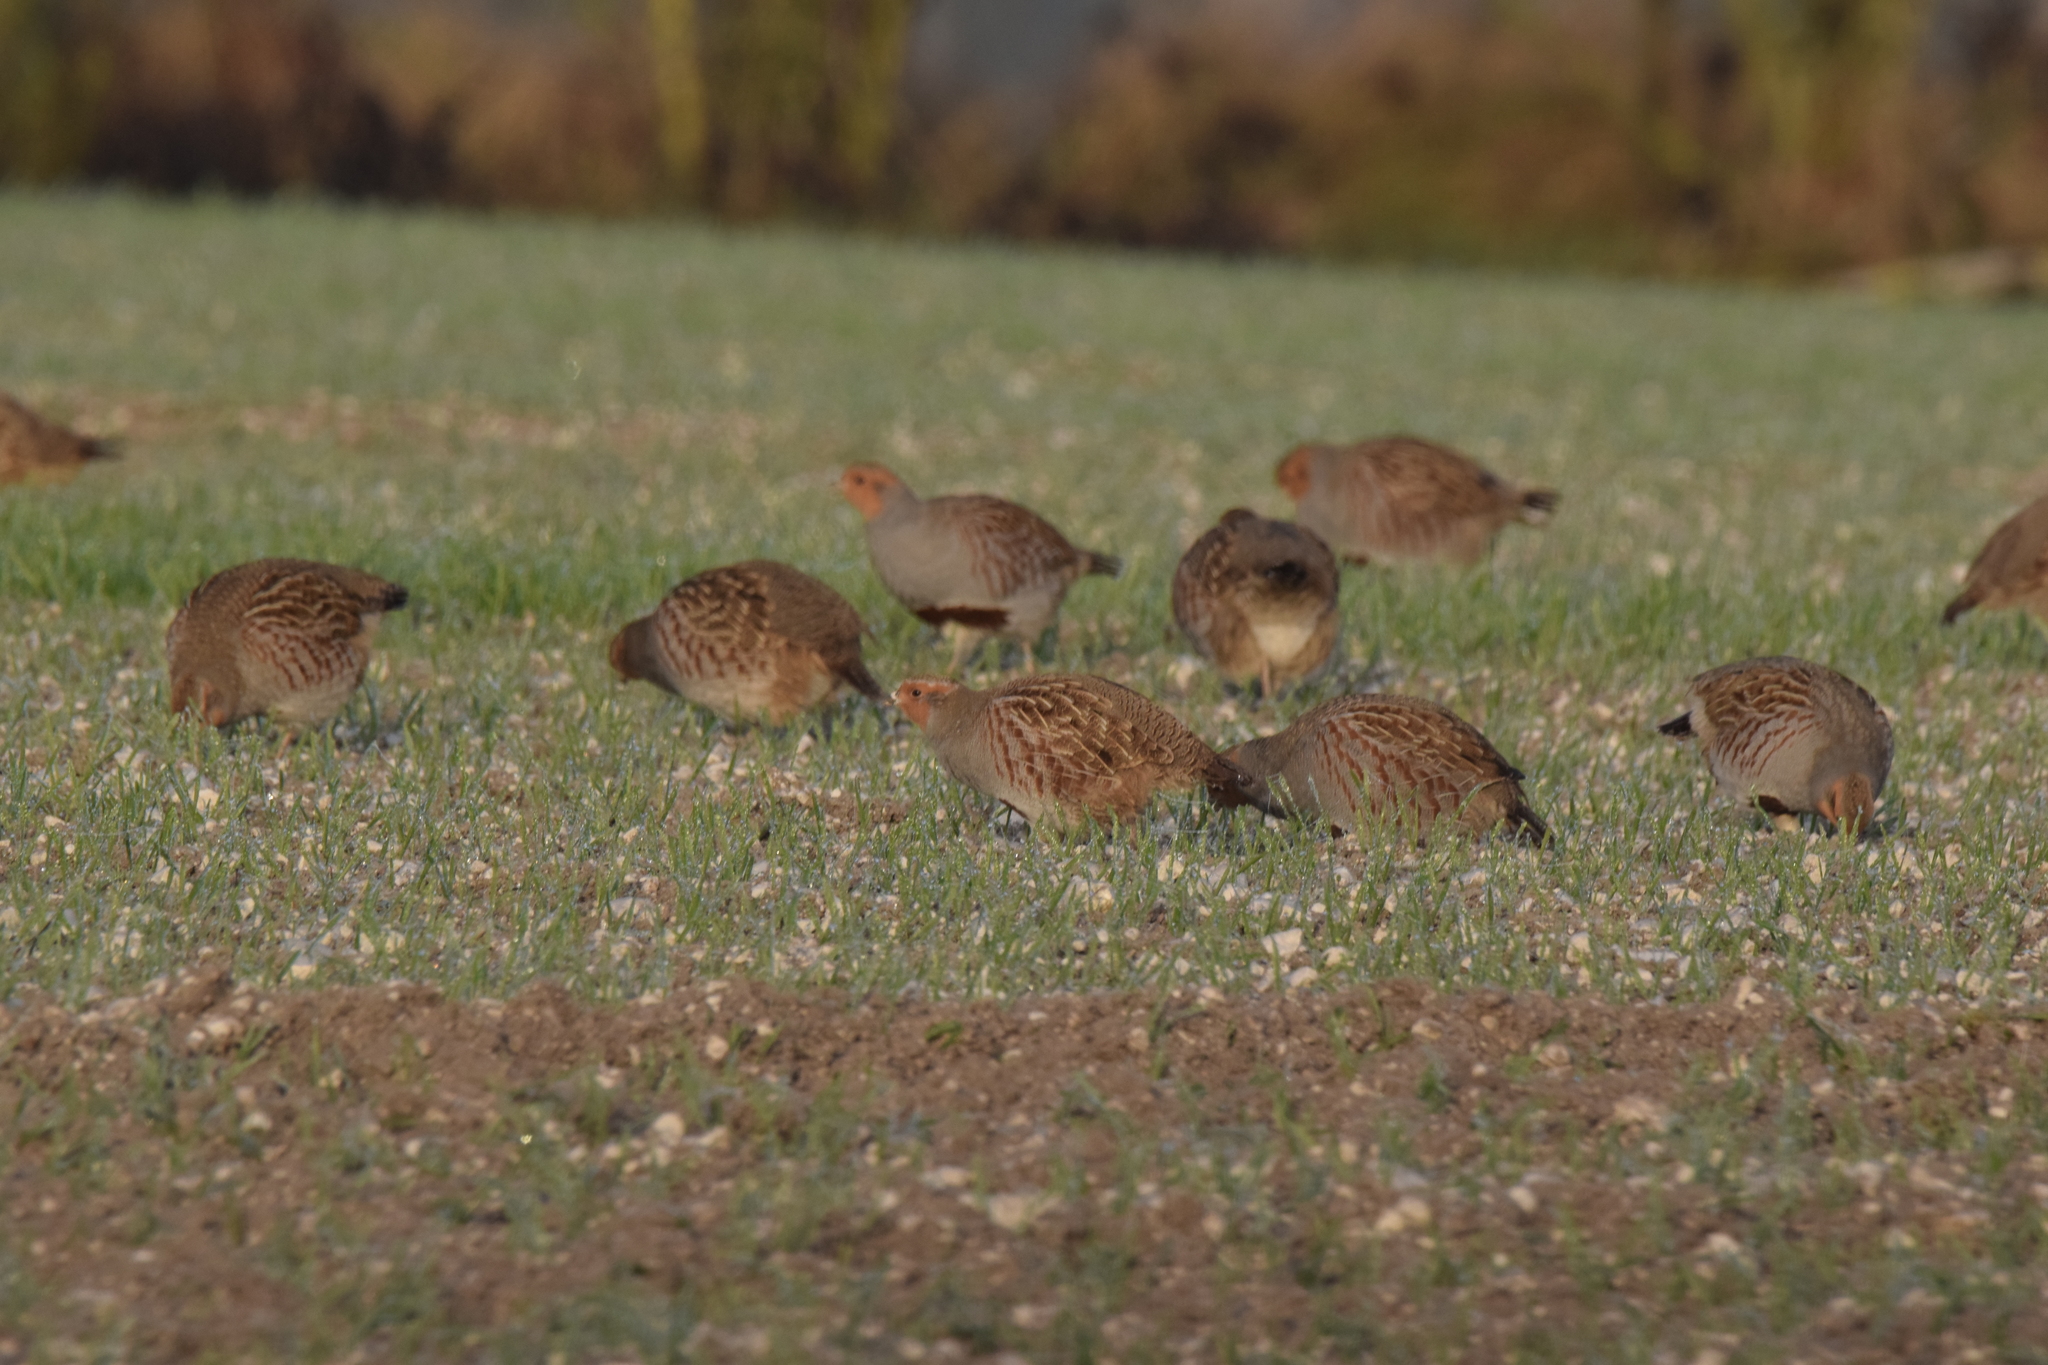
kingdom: Animalia
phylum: Chordata
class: Aves
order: Galliformes
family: Phasianidae
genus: Perdix
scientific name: Perdix perdix
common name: Grey partridge
